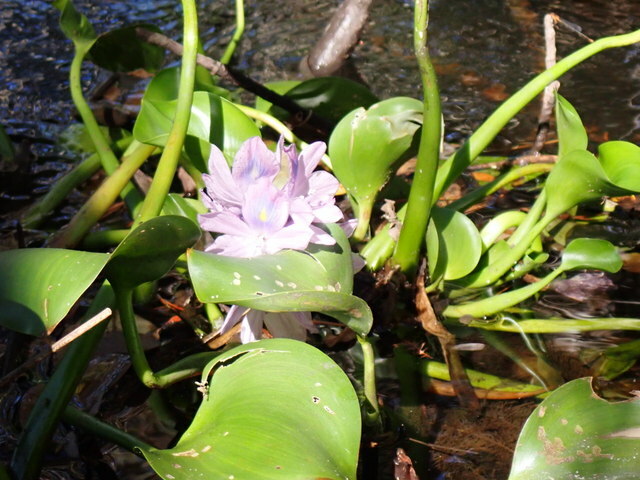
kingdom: Plantae
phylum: Tracheophyta
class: Liliopsida
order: Commelinales
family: Pontederiaceae
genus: Pontederia
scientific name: Pontederia crassipes
